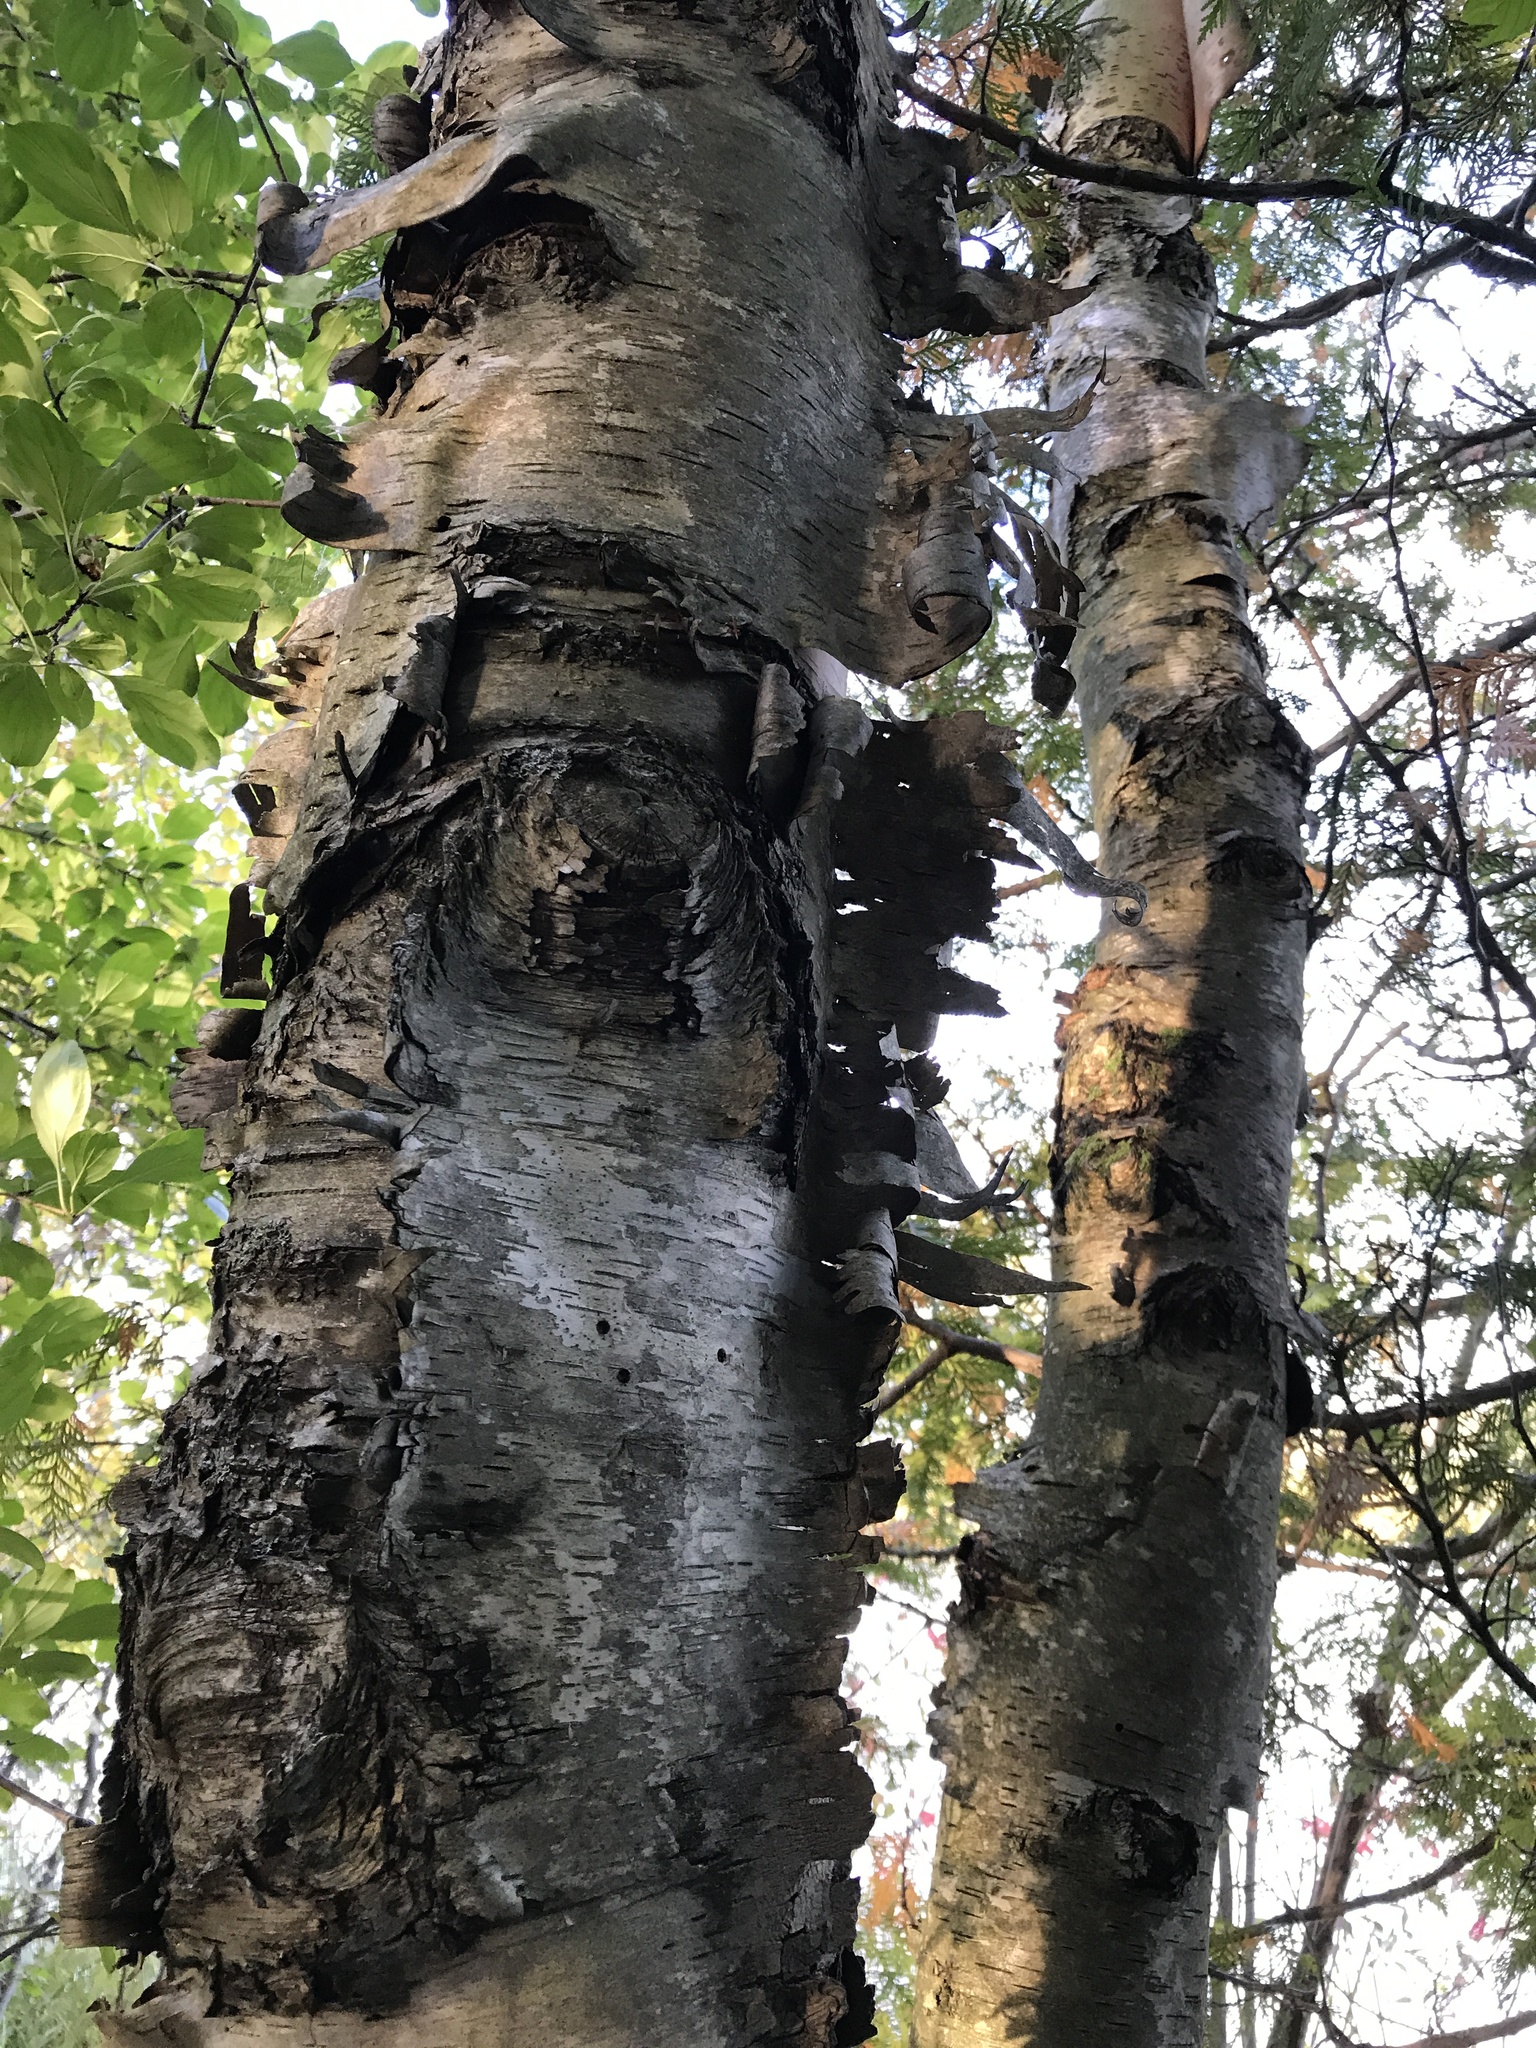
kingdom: Plantae
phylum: Tracheophyta
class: Magnoliopsida
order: Fagales
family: Betulaceae
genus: Betula
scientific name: Betula papyrifera
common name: Paper birch
